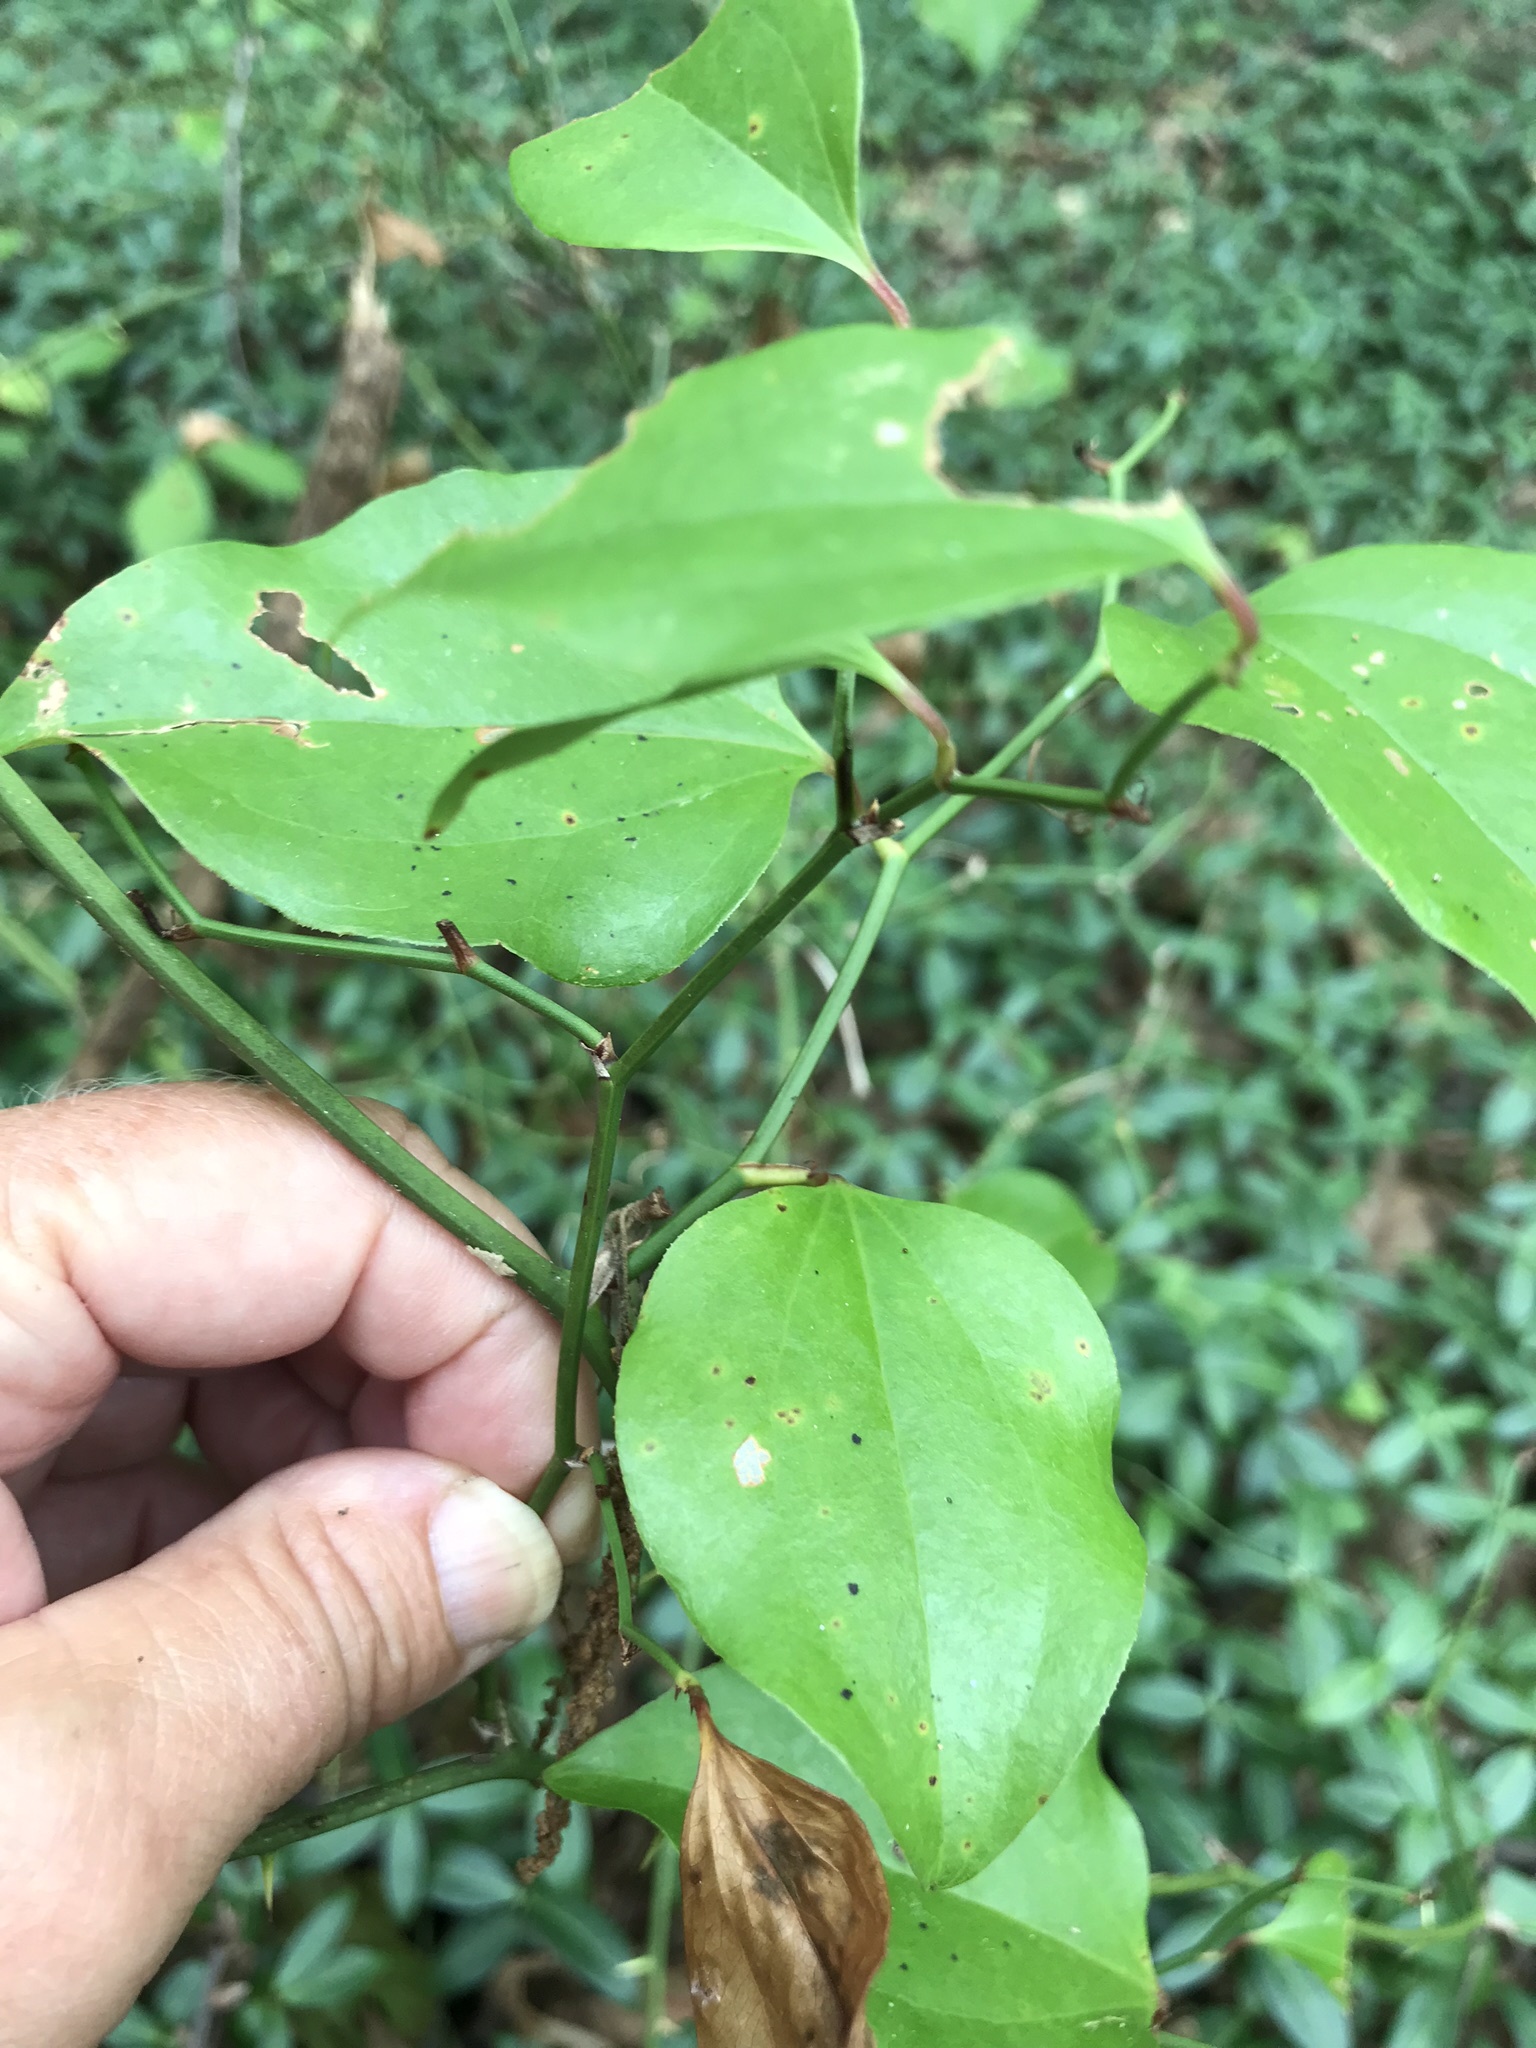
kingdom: Plantae
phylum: Tracheophyta
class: Liliopsida
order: Liliales
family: Smilacaceae
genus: Smilax
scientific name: Smilax rotundifolia
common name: Bullbriar
